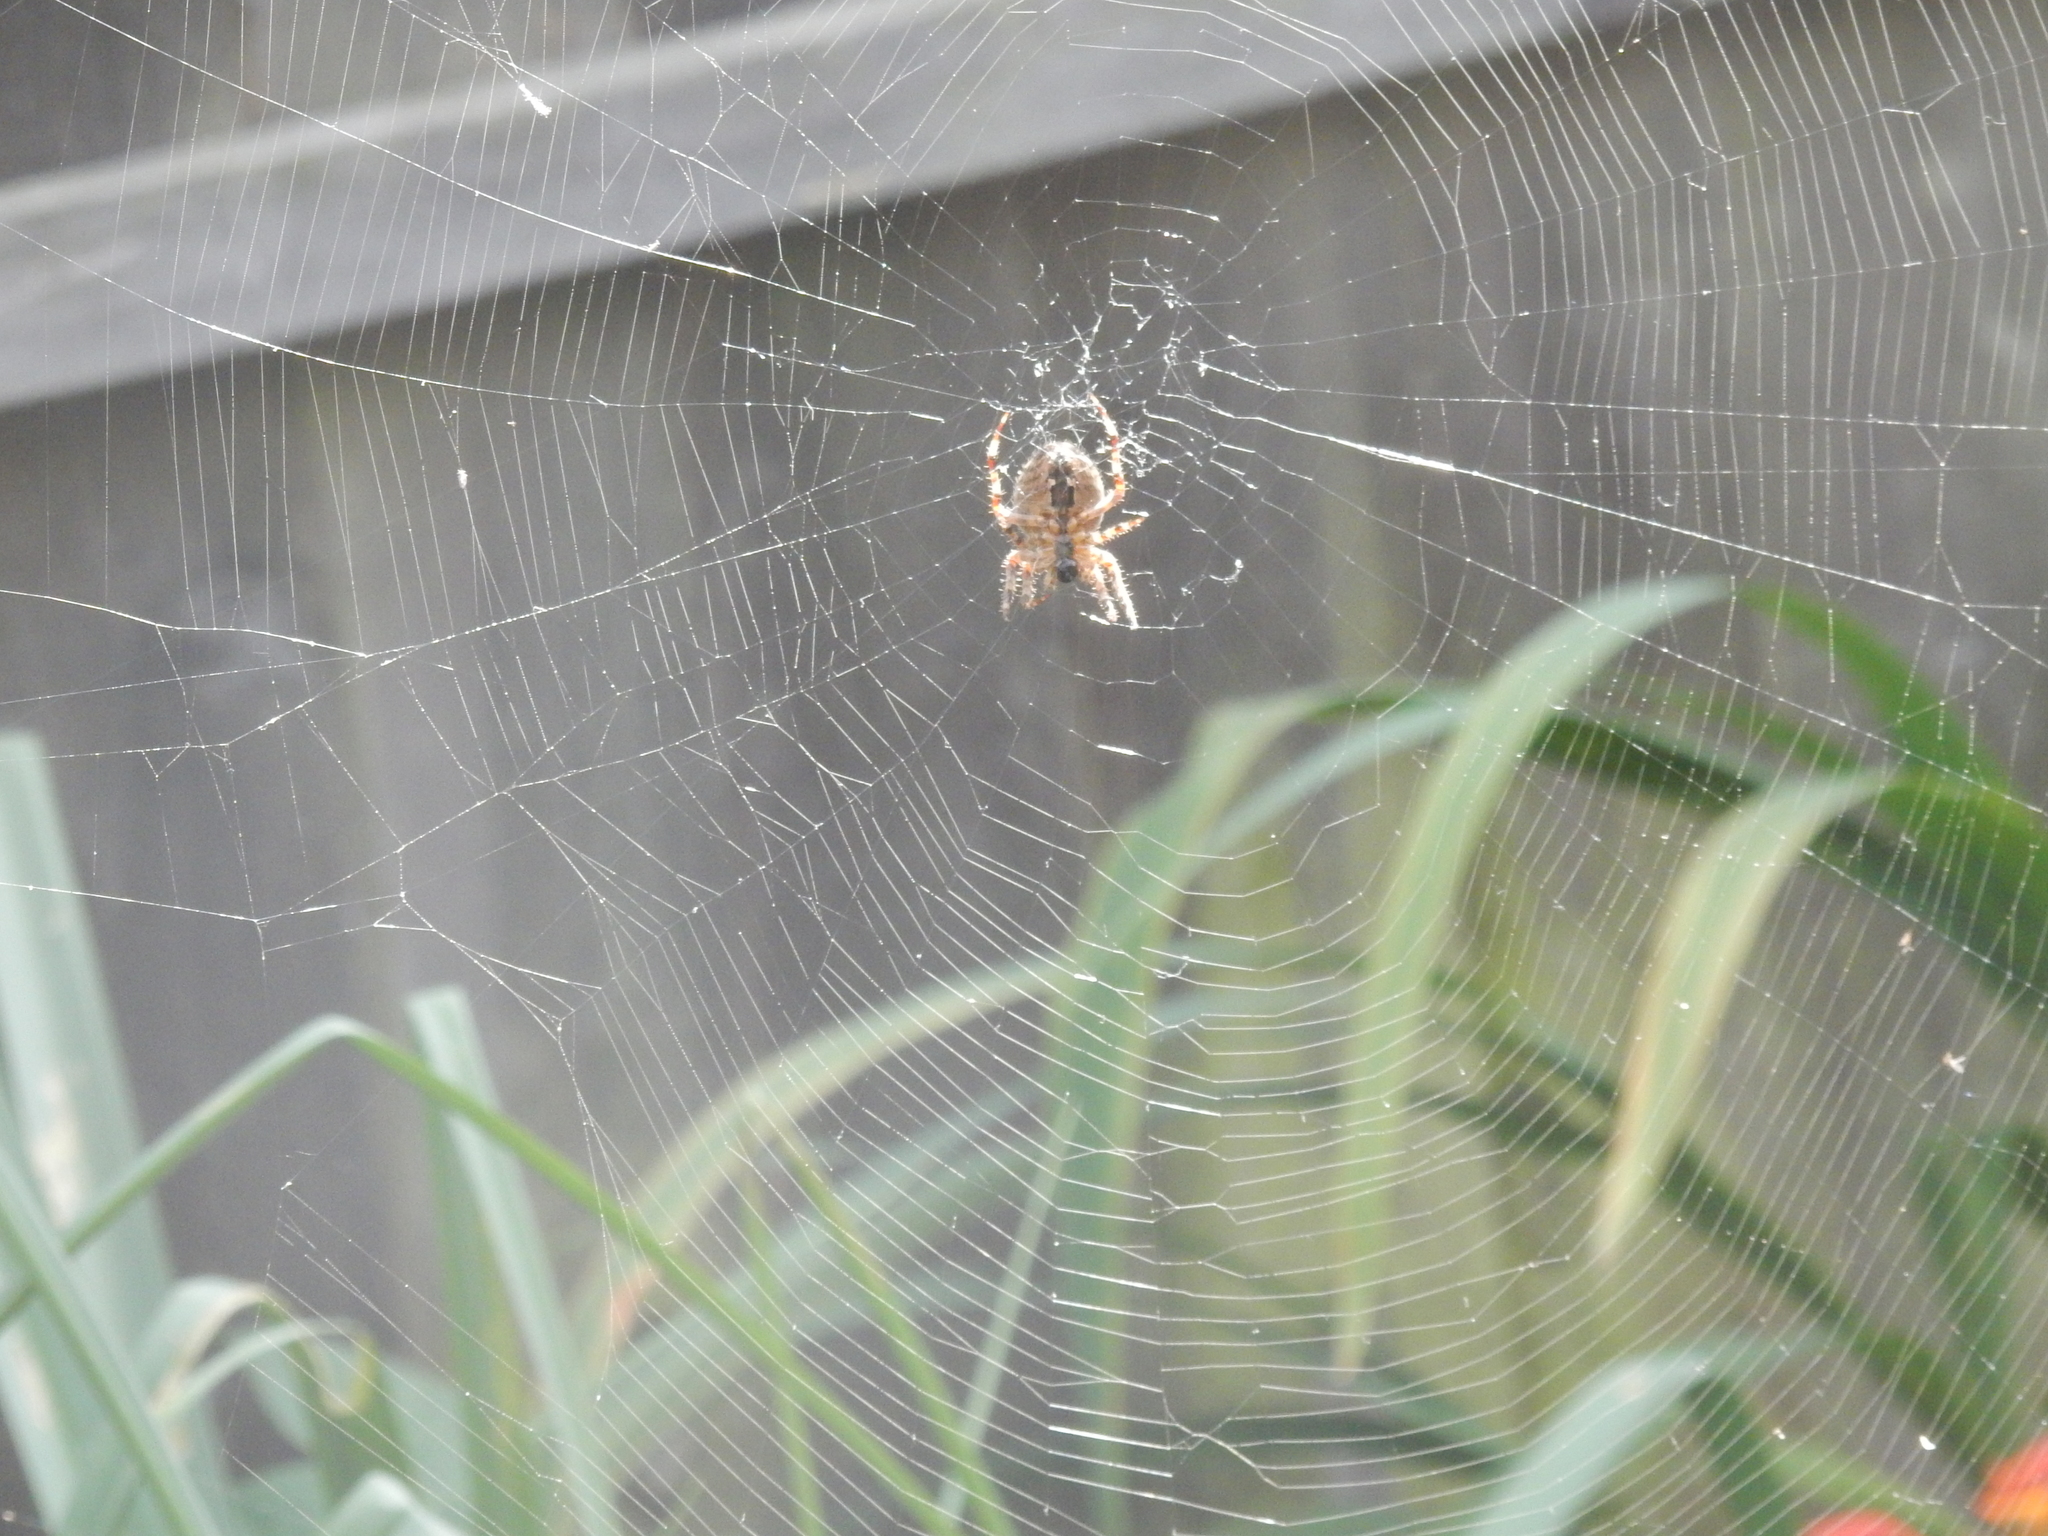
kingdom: Animalia
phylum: Arthropoda
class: Arachnida
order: Araneae
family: Araneidae
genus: Araneus
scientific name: Araneus diadematus
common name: Cross orbweaver
